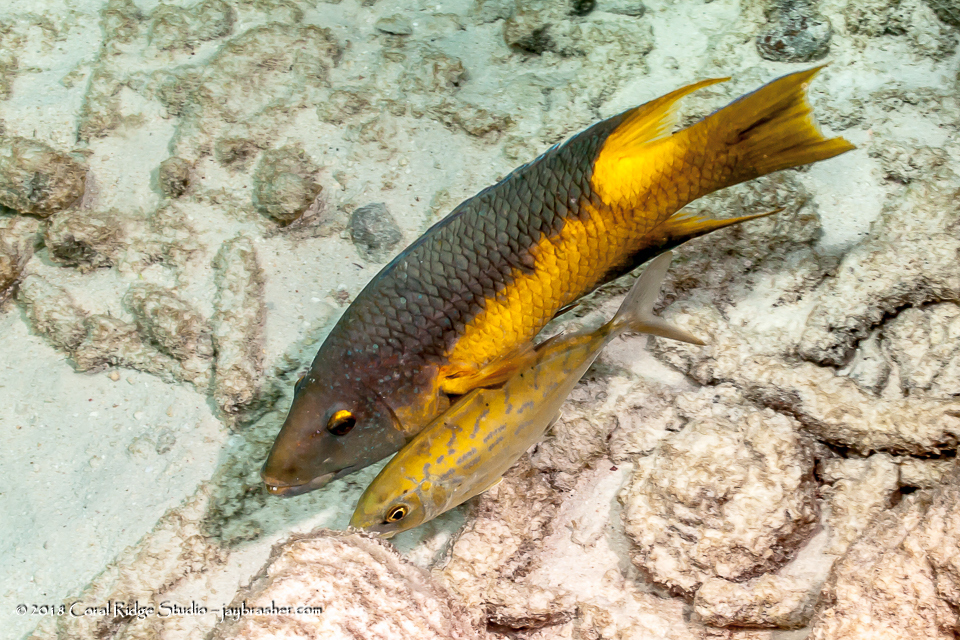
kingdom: Animalia
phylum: Chordata
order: Perciformes
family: Labridae
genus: Bodianus
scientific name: Bodianus rufus
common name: Spanish hogfish
